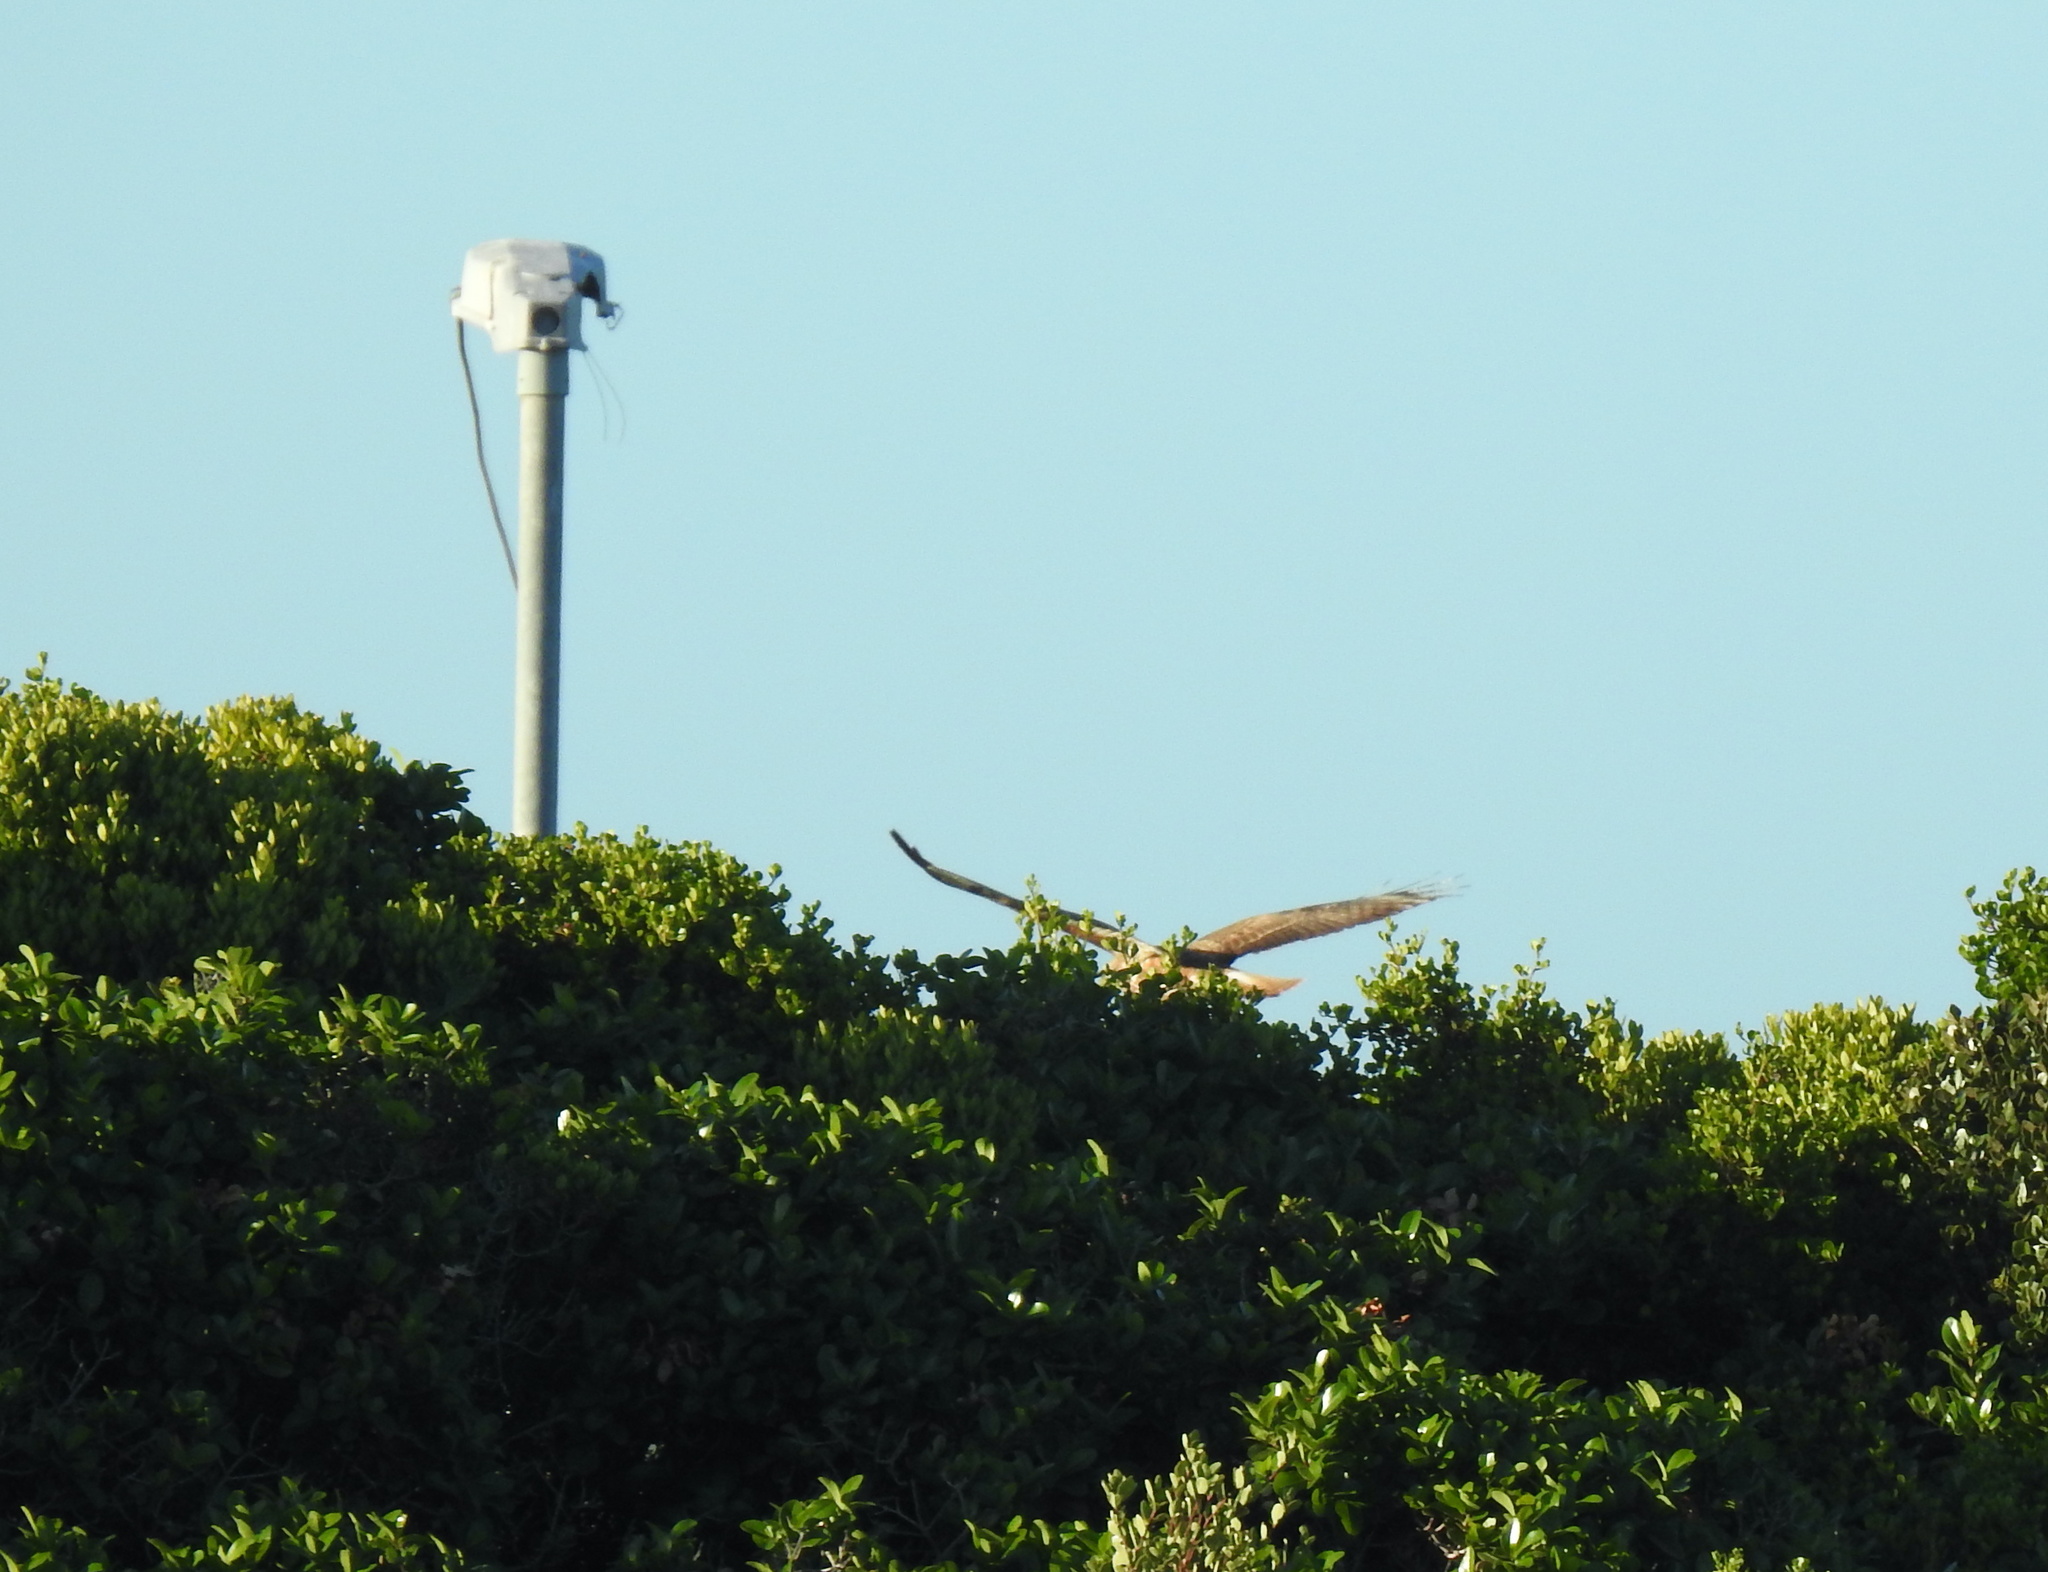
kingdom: Animalia
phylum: Chordata
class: Aves
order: Accipitriformes
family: Accipitridae
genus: Buteo
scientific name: Buteo buteo
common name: Common buzzard
